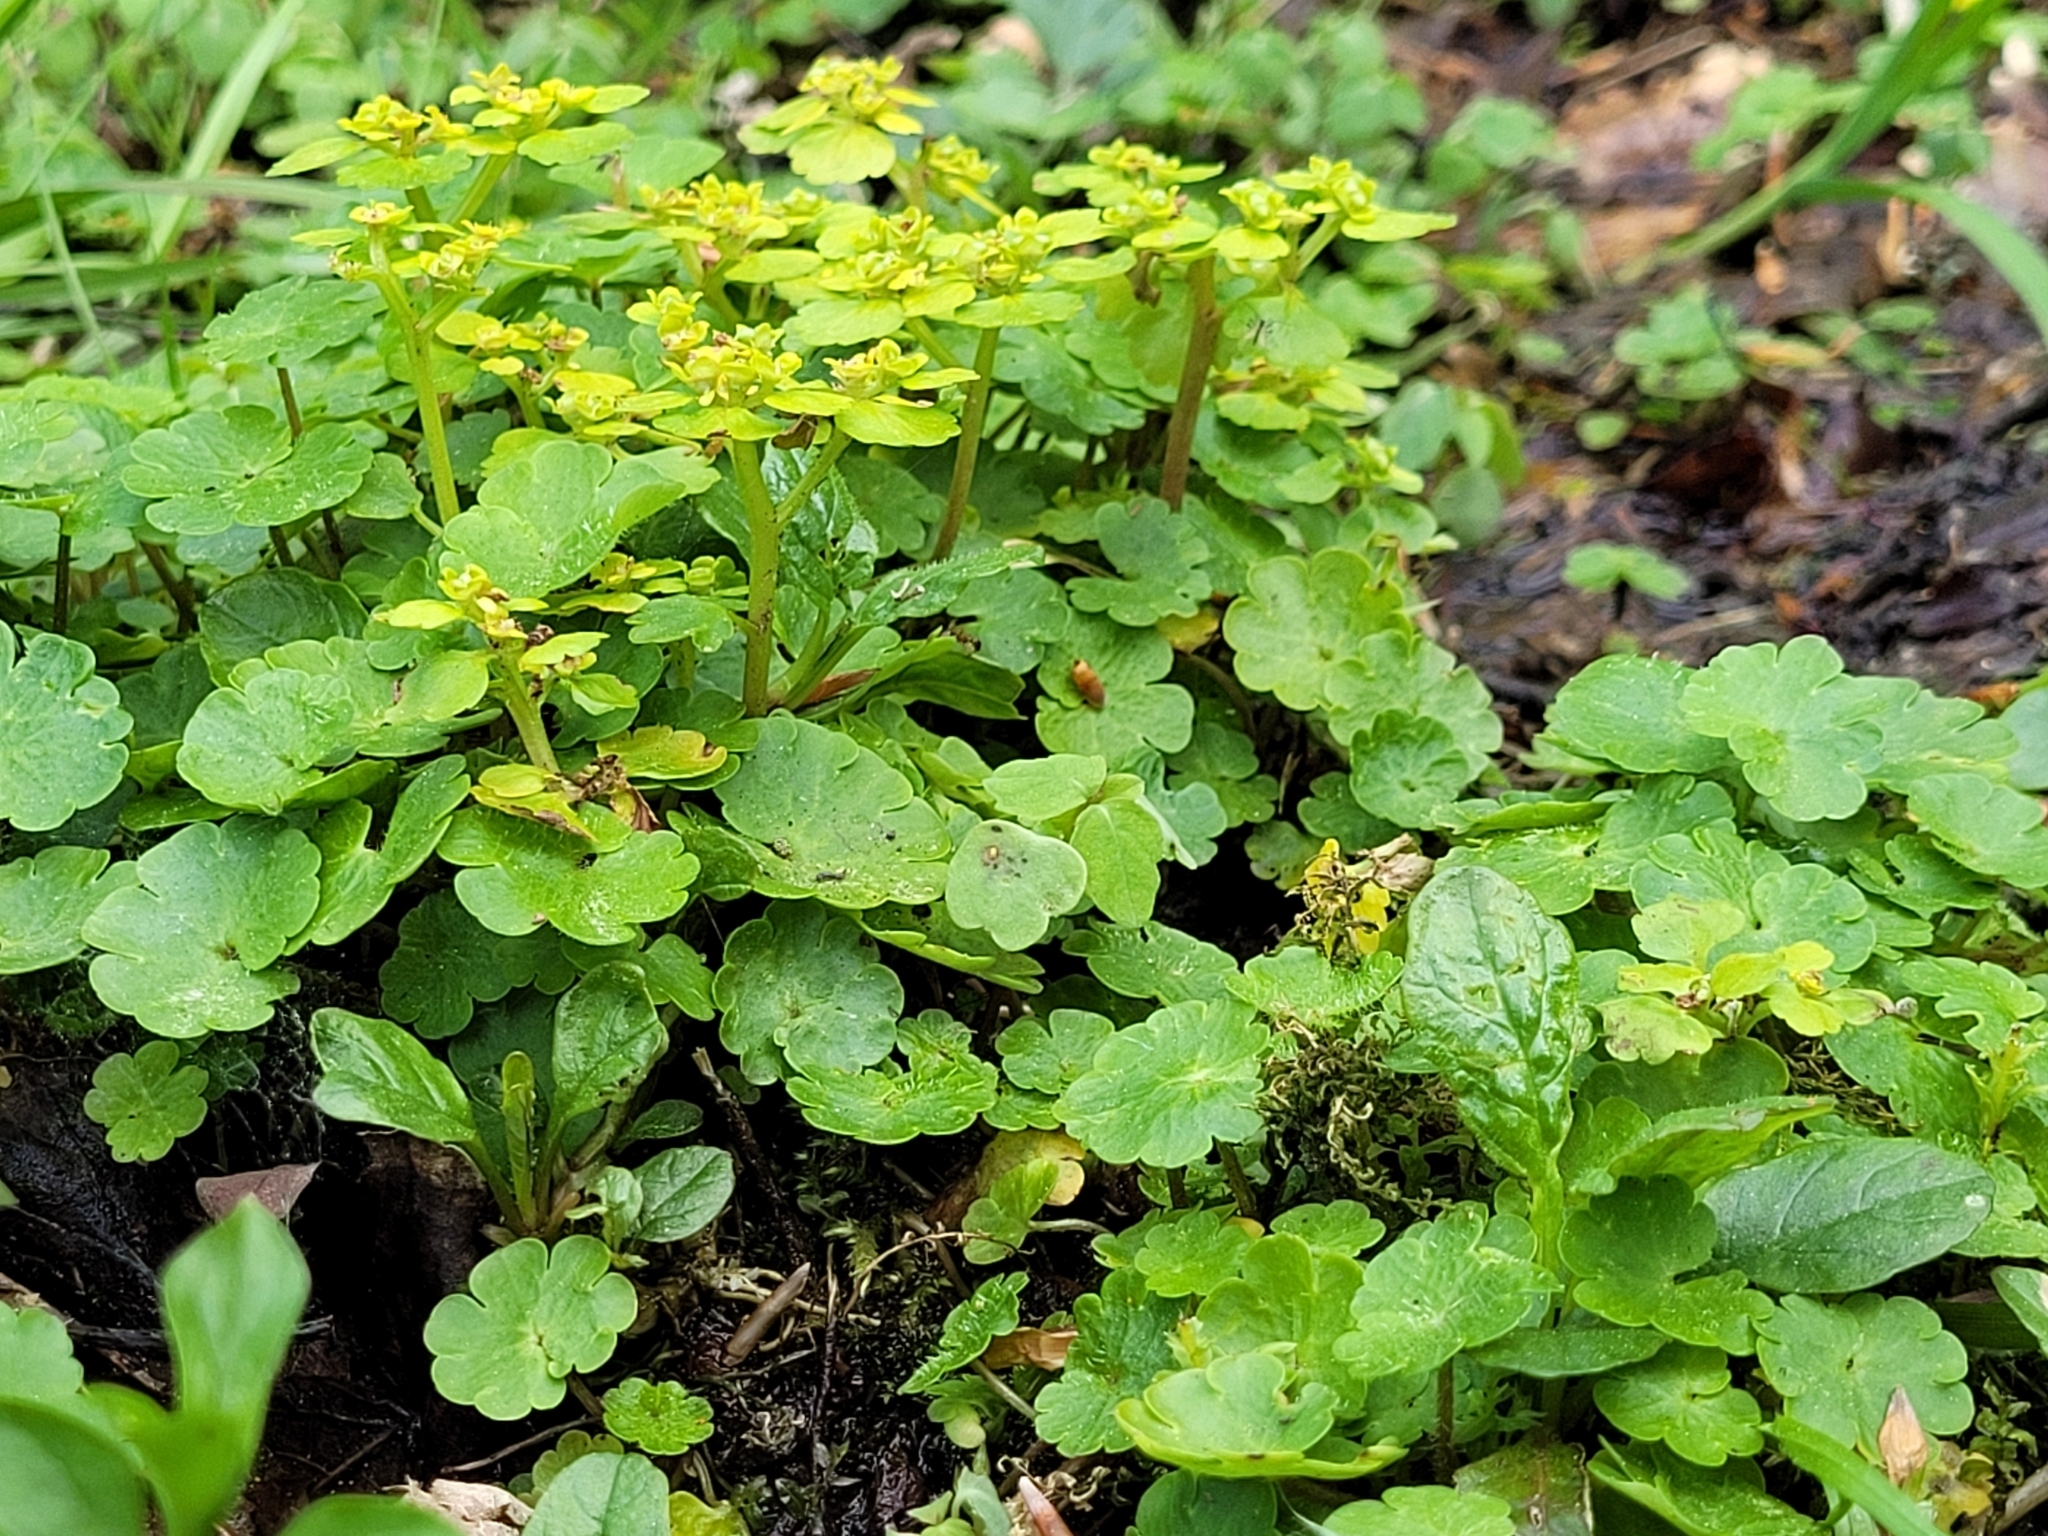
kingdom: Plantae
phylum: Tracheophyta
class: Magnoliopsida
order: Saxifragales
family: Saxifragaceae
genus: Chrysosplenium
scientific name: Chrysosplenium alternifolium
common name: Alternate-leaved golden-saxifrage
